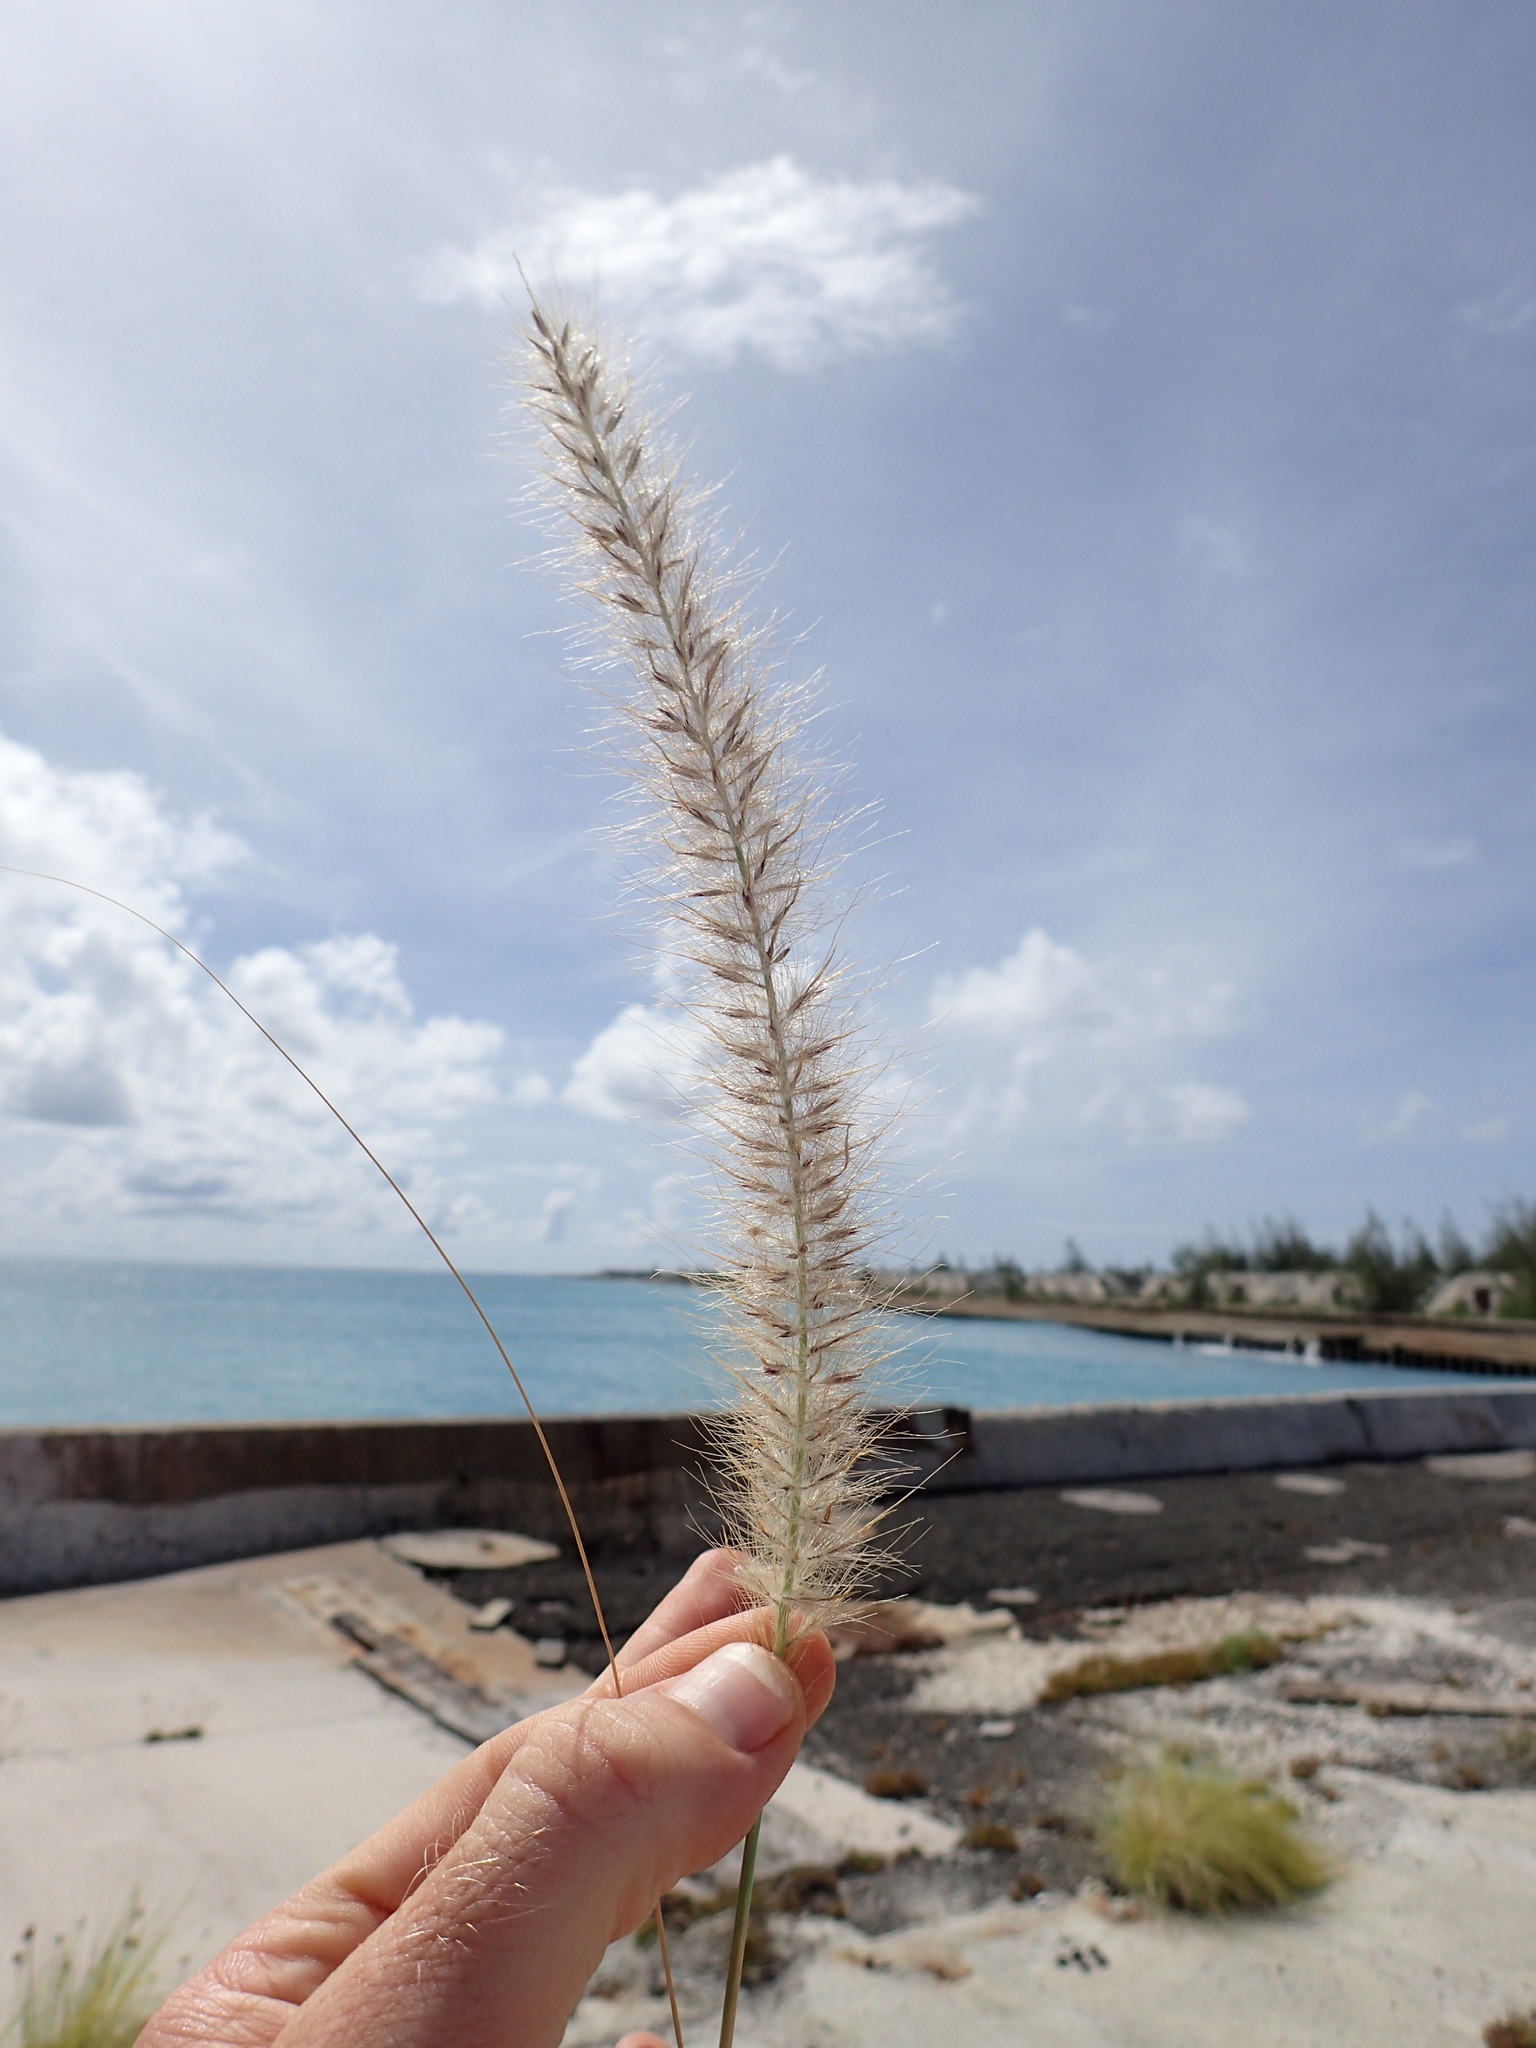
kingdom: Plantae
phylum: Tracheophyta
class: Liliopsida
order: Poales
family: Poaceae
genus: Cenchrus
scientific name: Cenchrus setaceus
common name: Crimson fountaingrass
